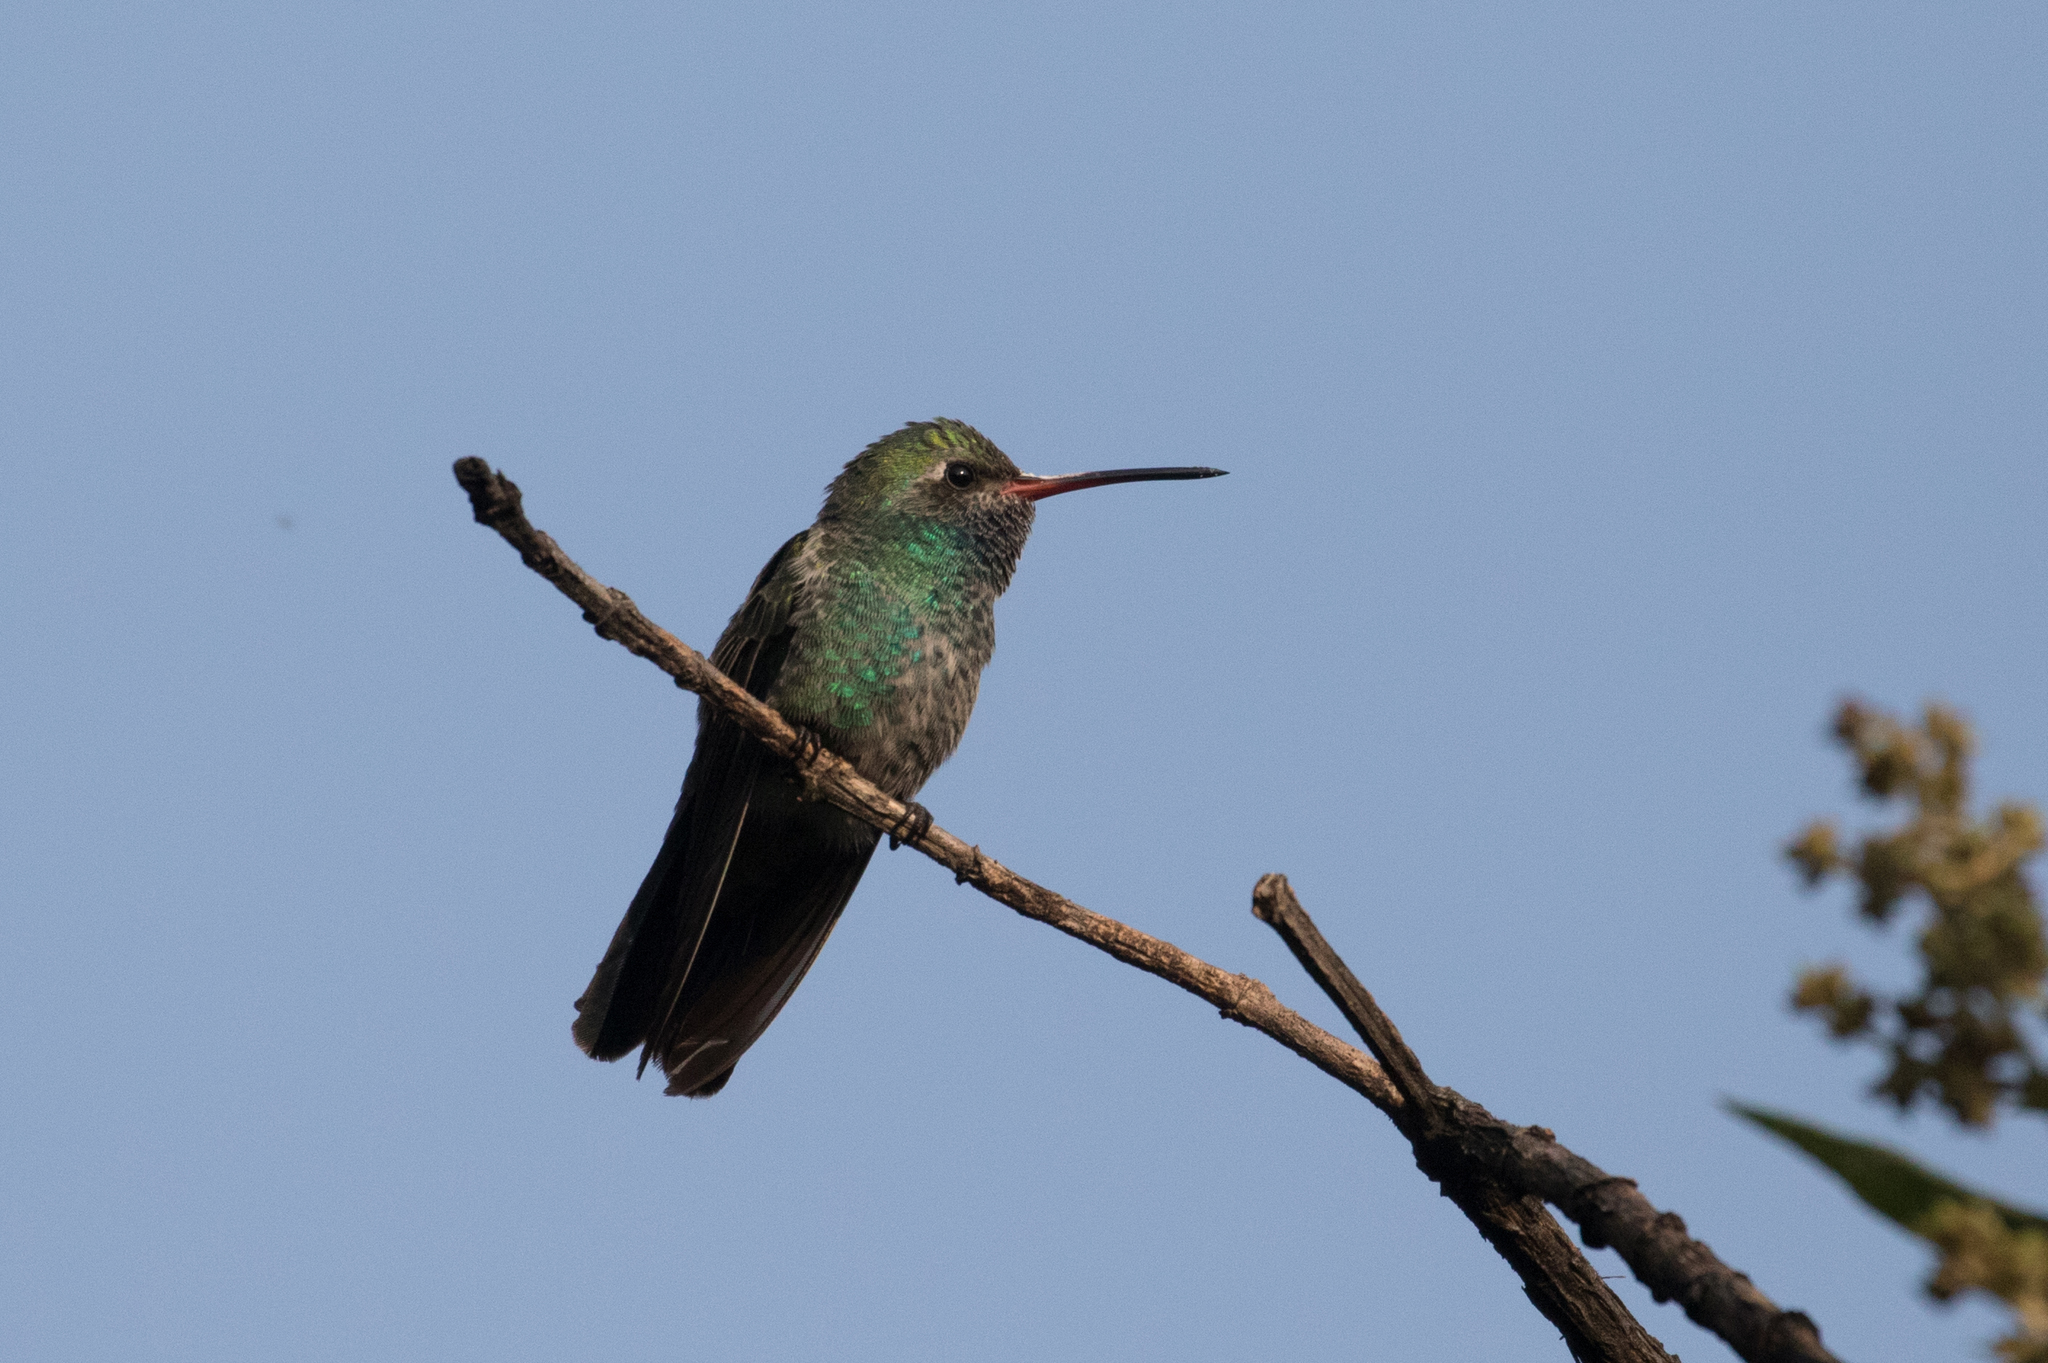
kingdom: Animalia
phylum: Chordata
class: Aves
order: Apodiformes
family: Trochilidae
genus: Cynanthus
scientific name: Cynanthus latirostris
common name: Broad-billed hummingbird
